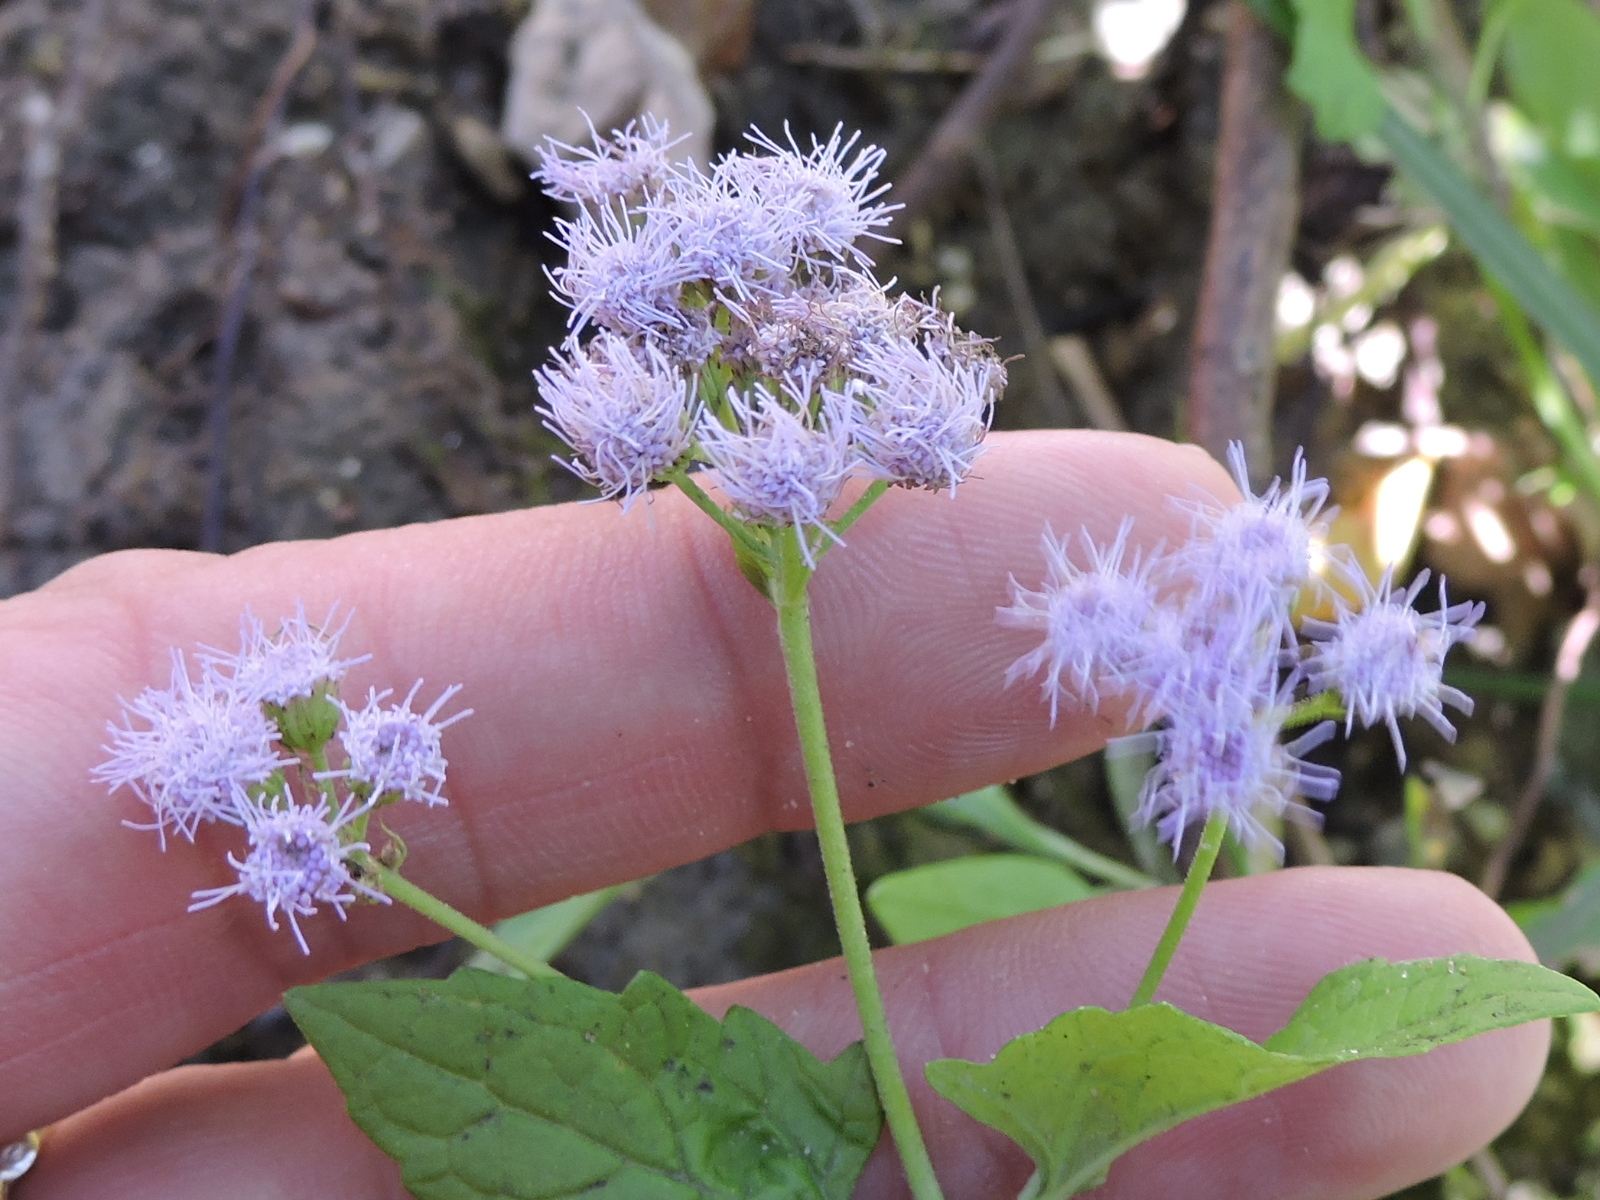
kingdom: Plantae
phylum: Tracheophyta
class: Magnoliopsida
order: Asterales
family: Asteraceae
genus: Conoclinium
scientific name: Conoclinium coelestinum
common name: Blue mistflower
